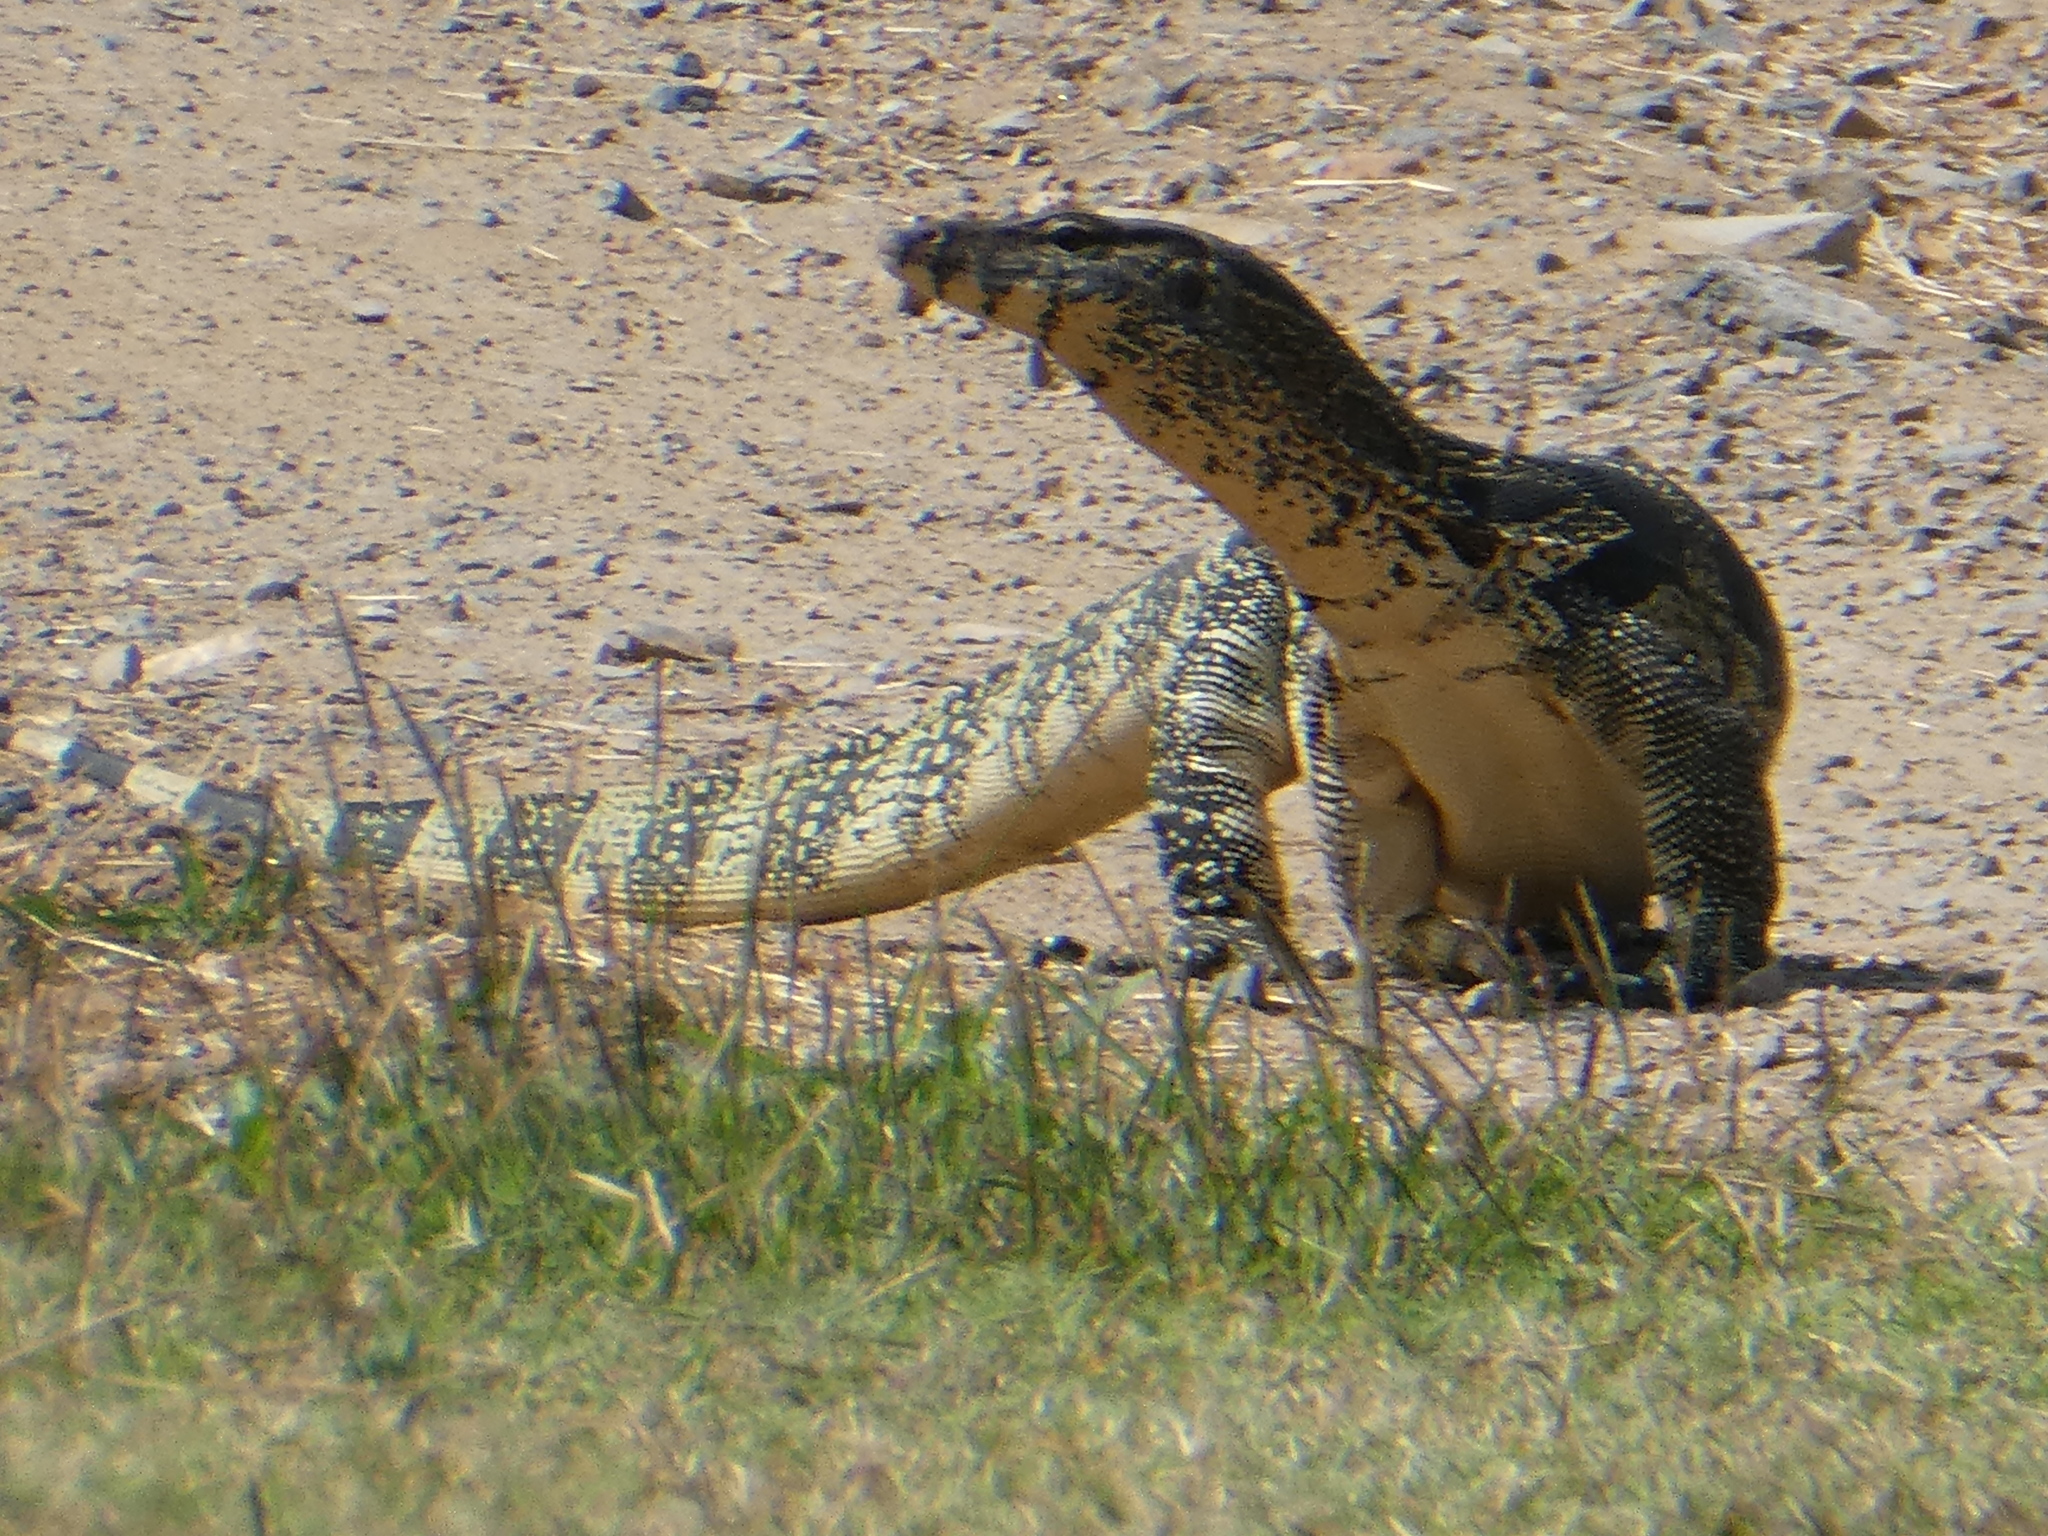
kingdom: Animalia
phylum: Chordata
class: Squamata
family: Varanidae
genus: Varanus
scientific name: Varanus salvator
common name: Common water monitor
